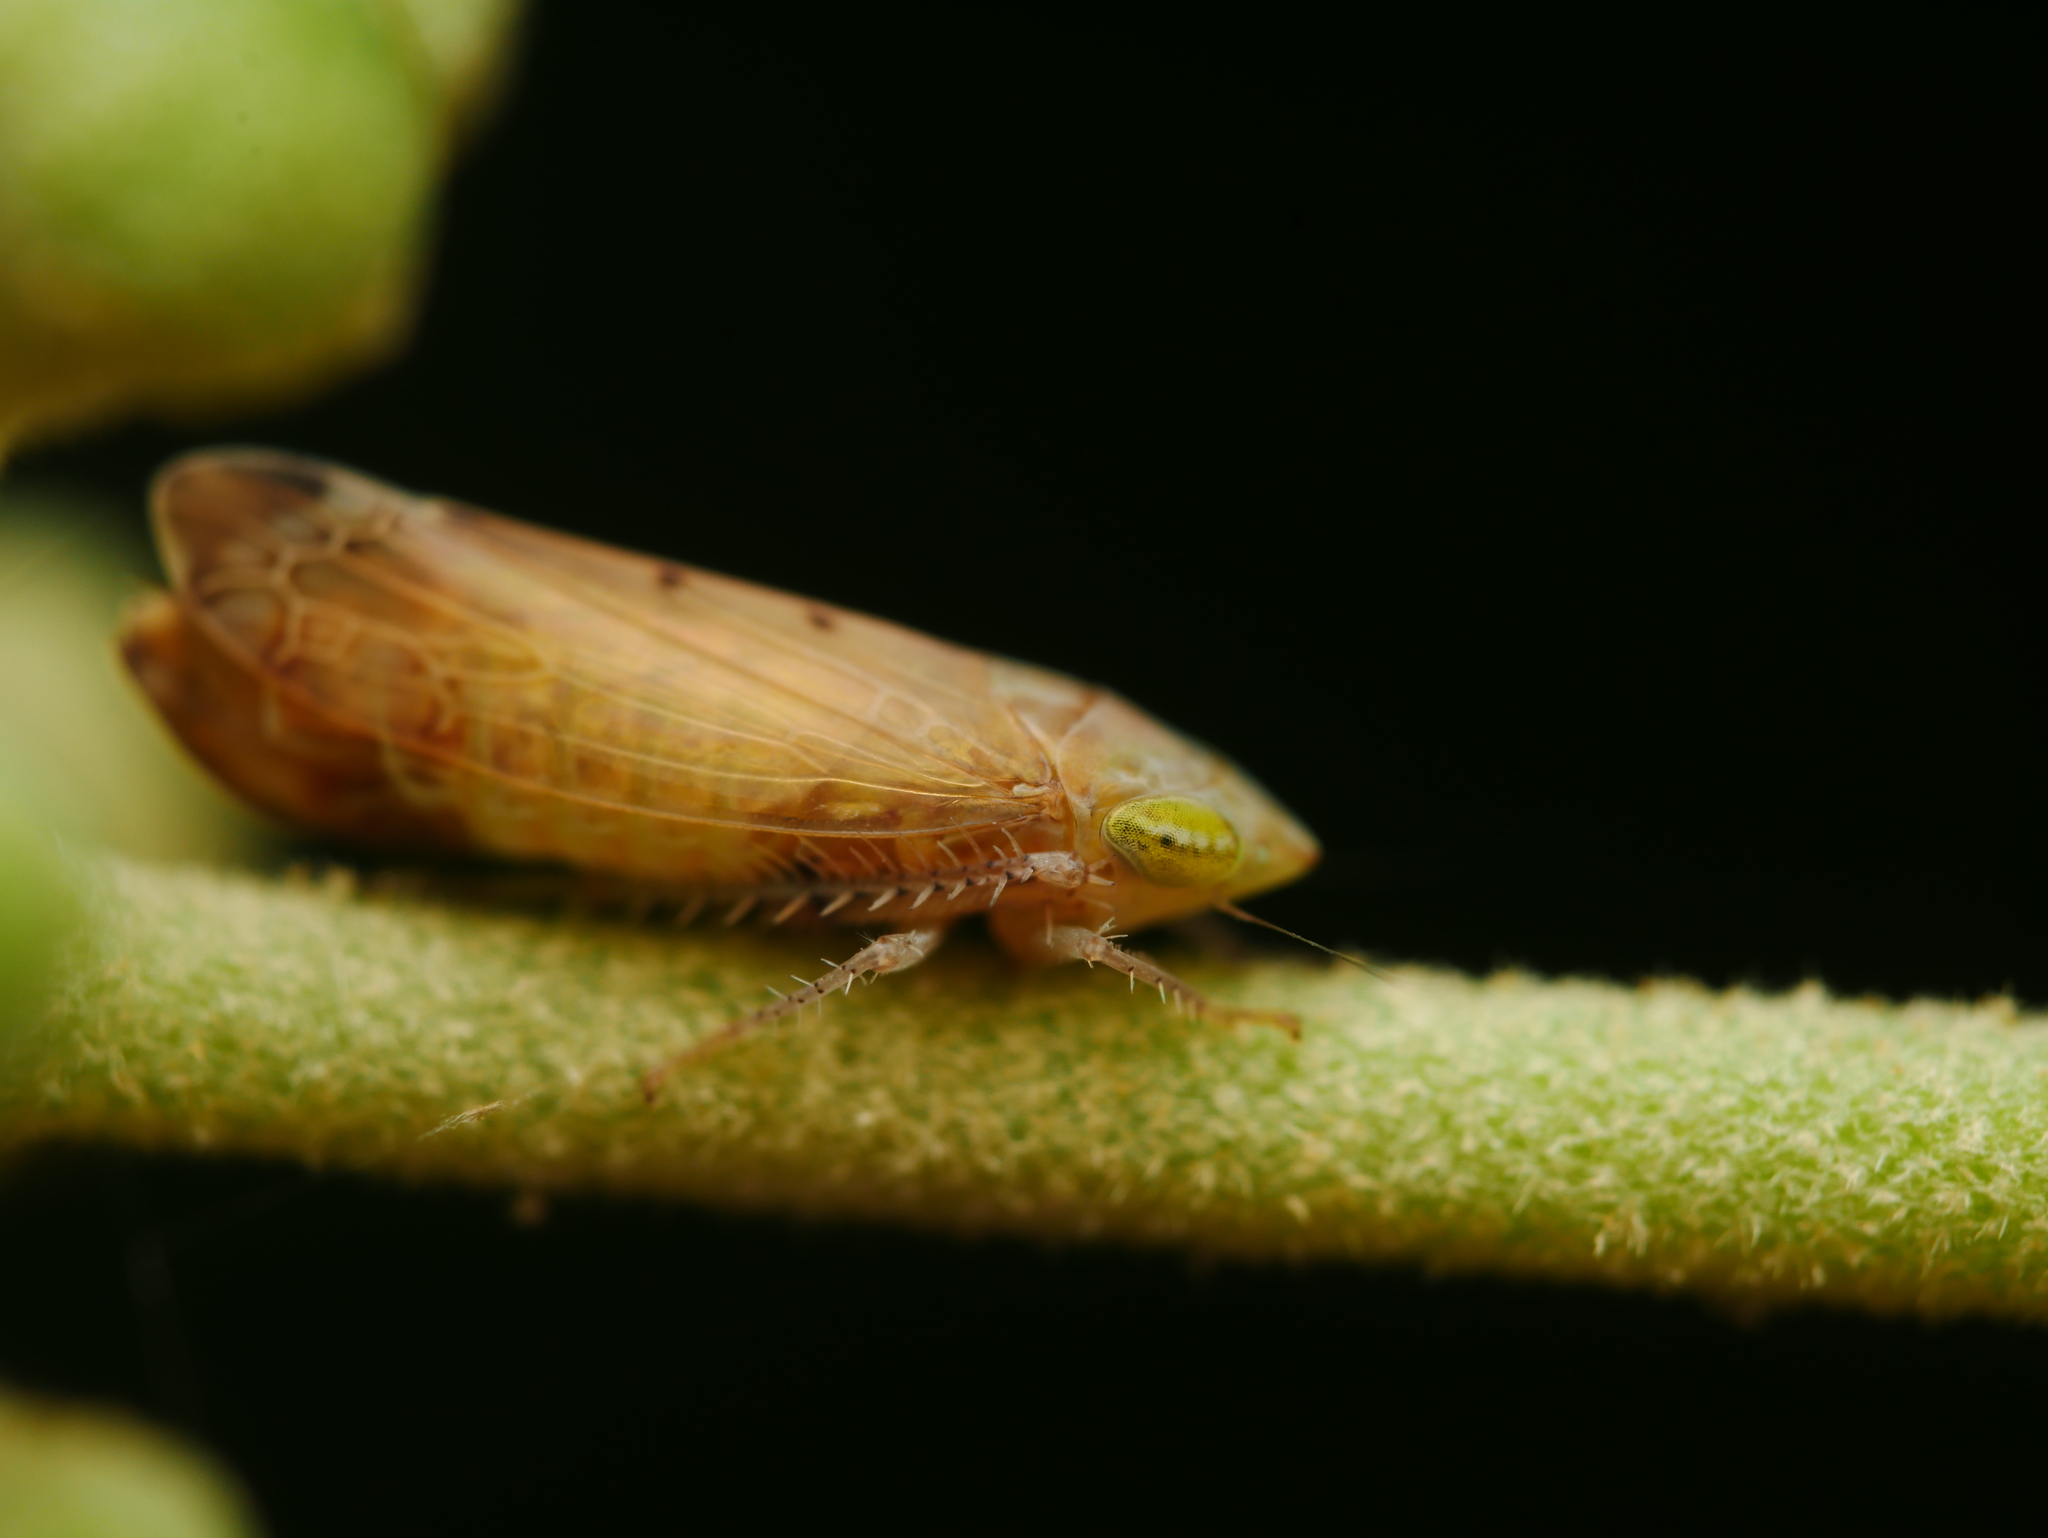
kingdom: Animalia
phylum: Arthropoda
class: Insecta
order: Hemiptera
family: Cicadellidae
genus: Synophropsis
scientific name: Synophropsis lauri
